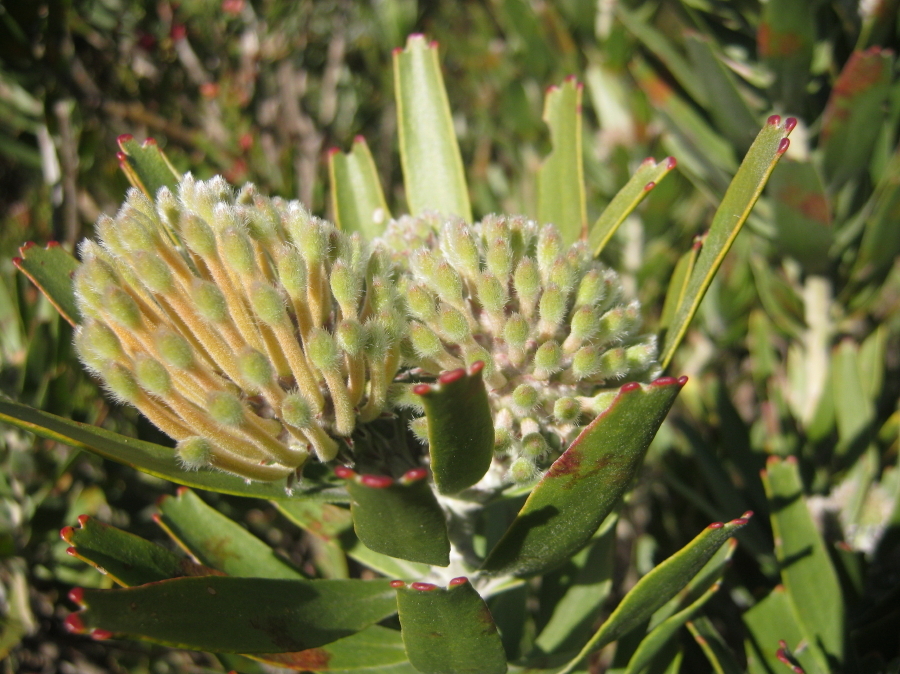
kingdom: Plantae
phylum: Tracheophyta
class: Magnoliopsida
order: Proteales
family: Proteaceae
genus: Leucospermum
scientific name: Leucospermum erubescens
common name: Oudtshoorn pincushion
